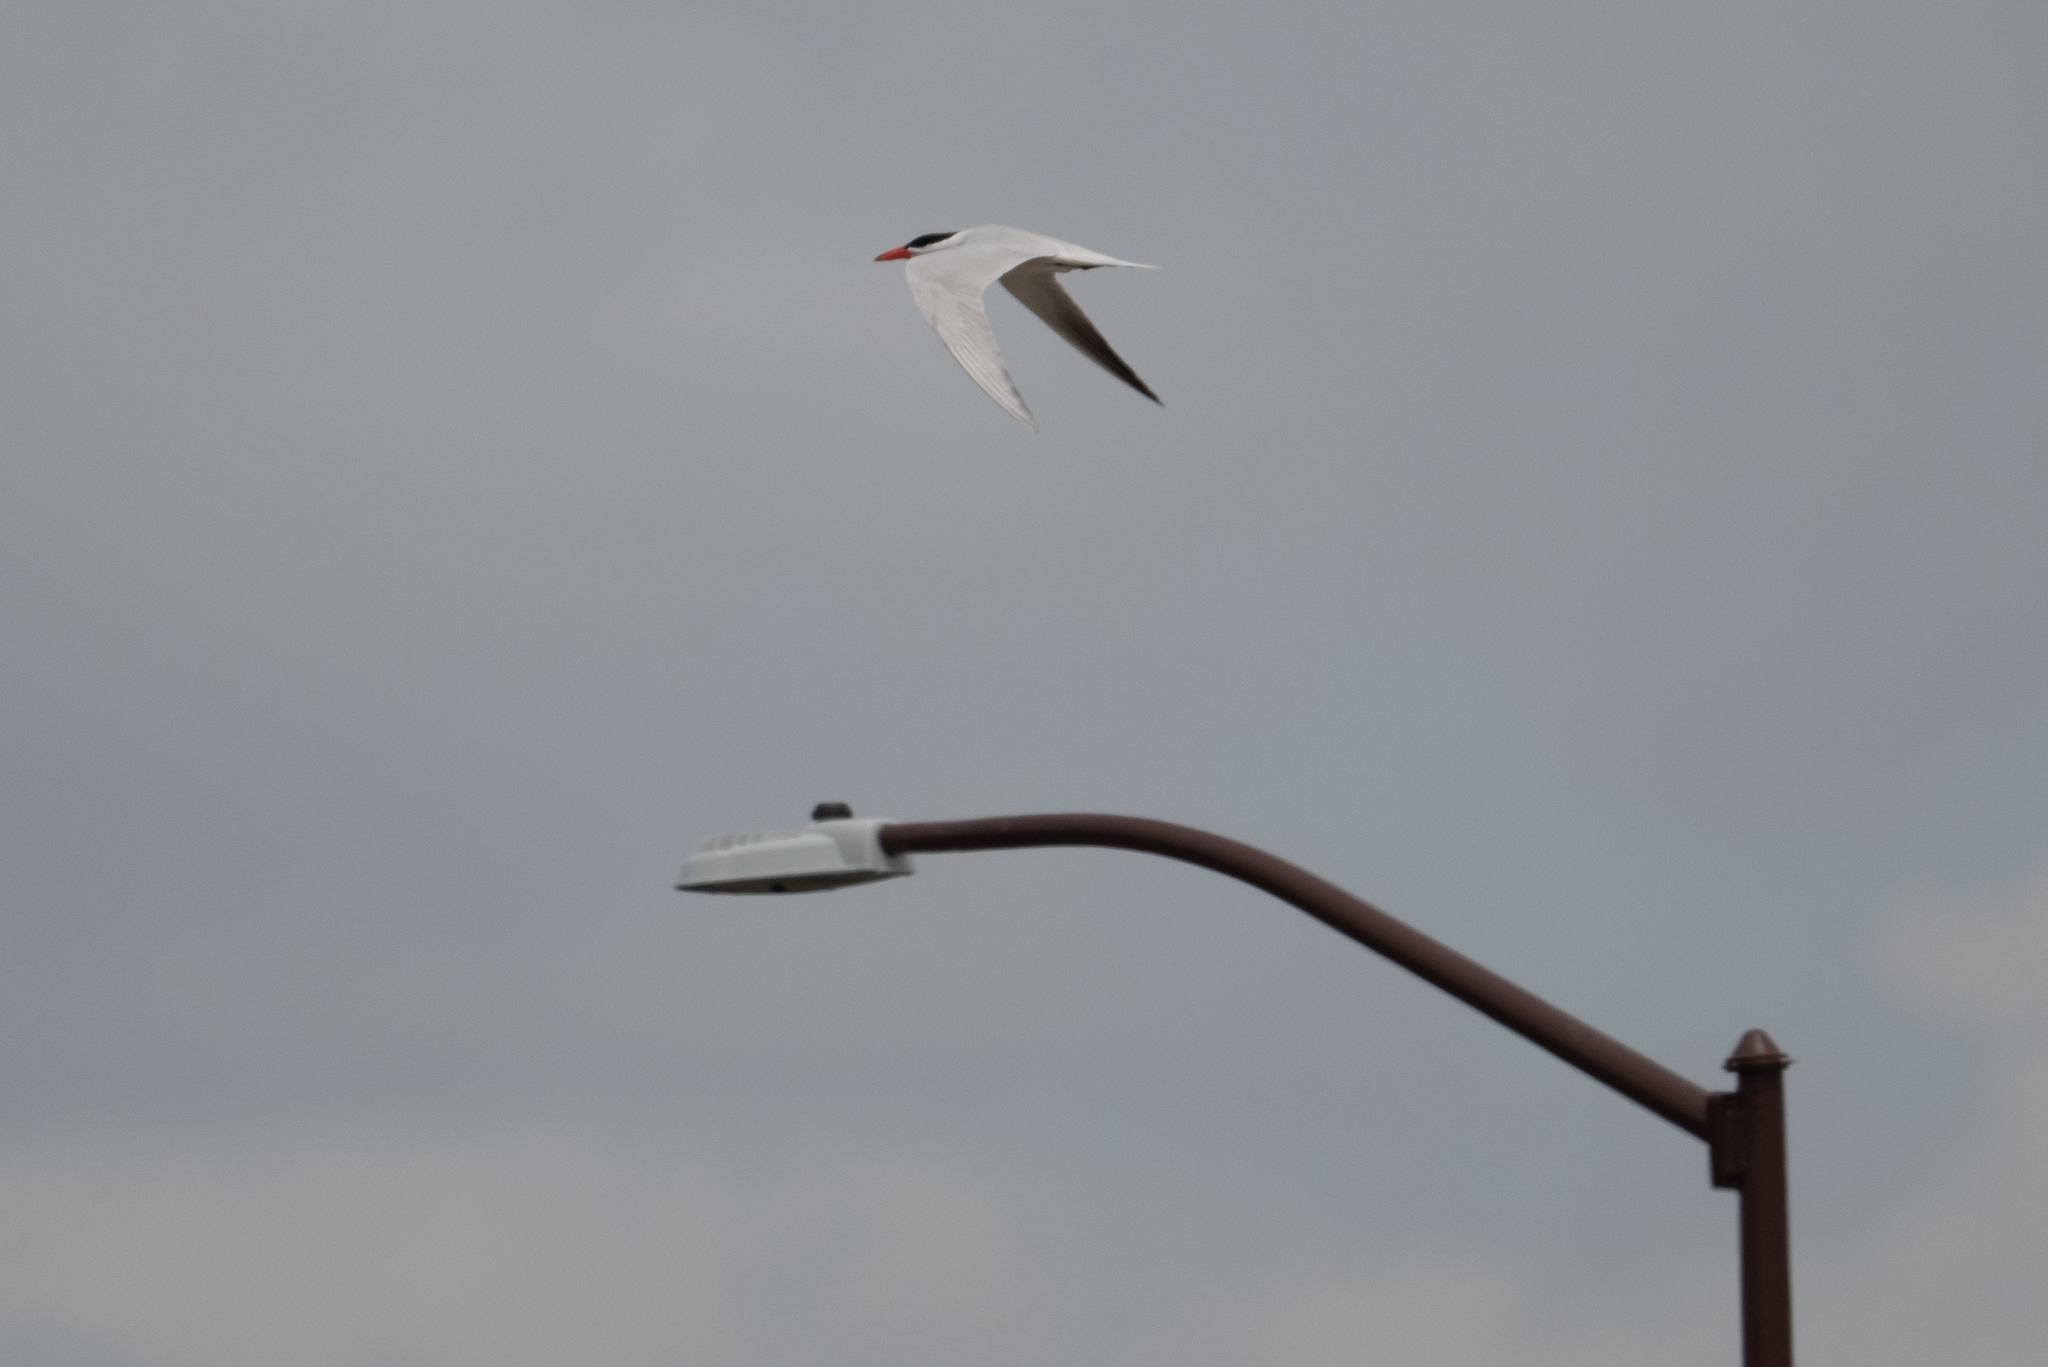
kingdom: Animalia
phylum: Chordata
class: Aves
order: Charadriiformes
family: Laridae
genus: Hydroprogne
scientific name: Hydroprogne caspia
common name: Caspian tern
